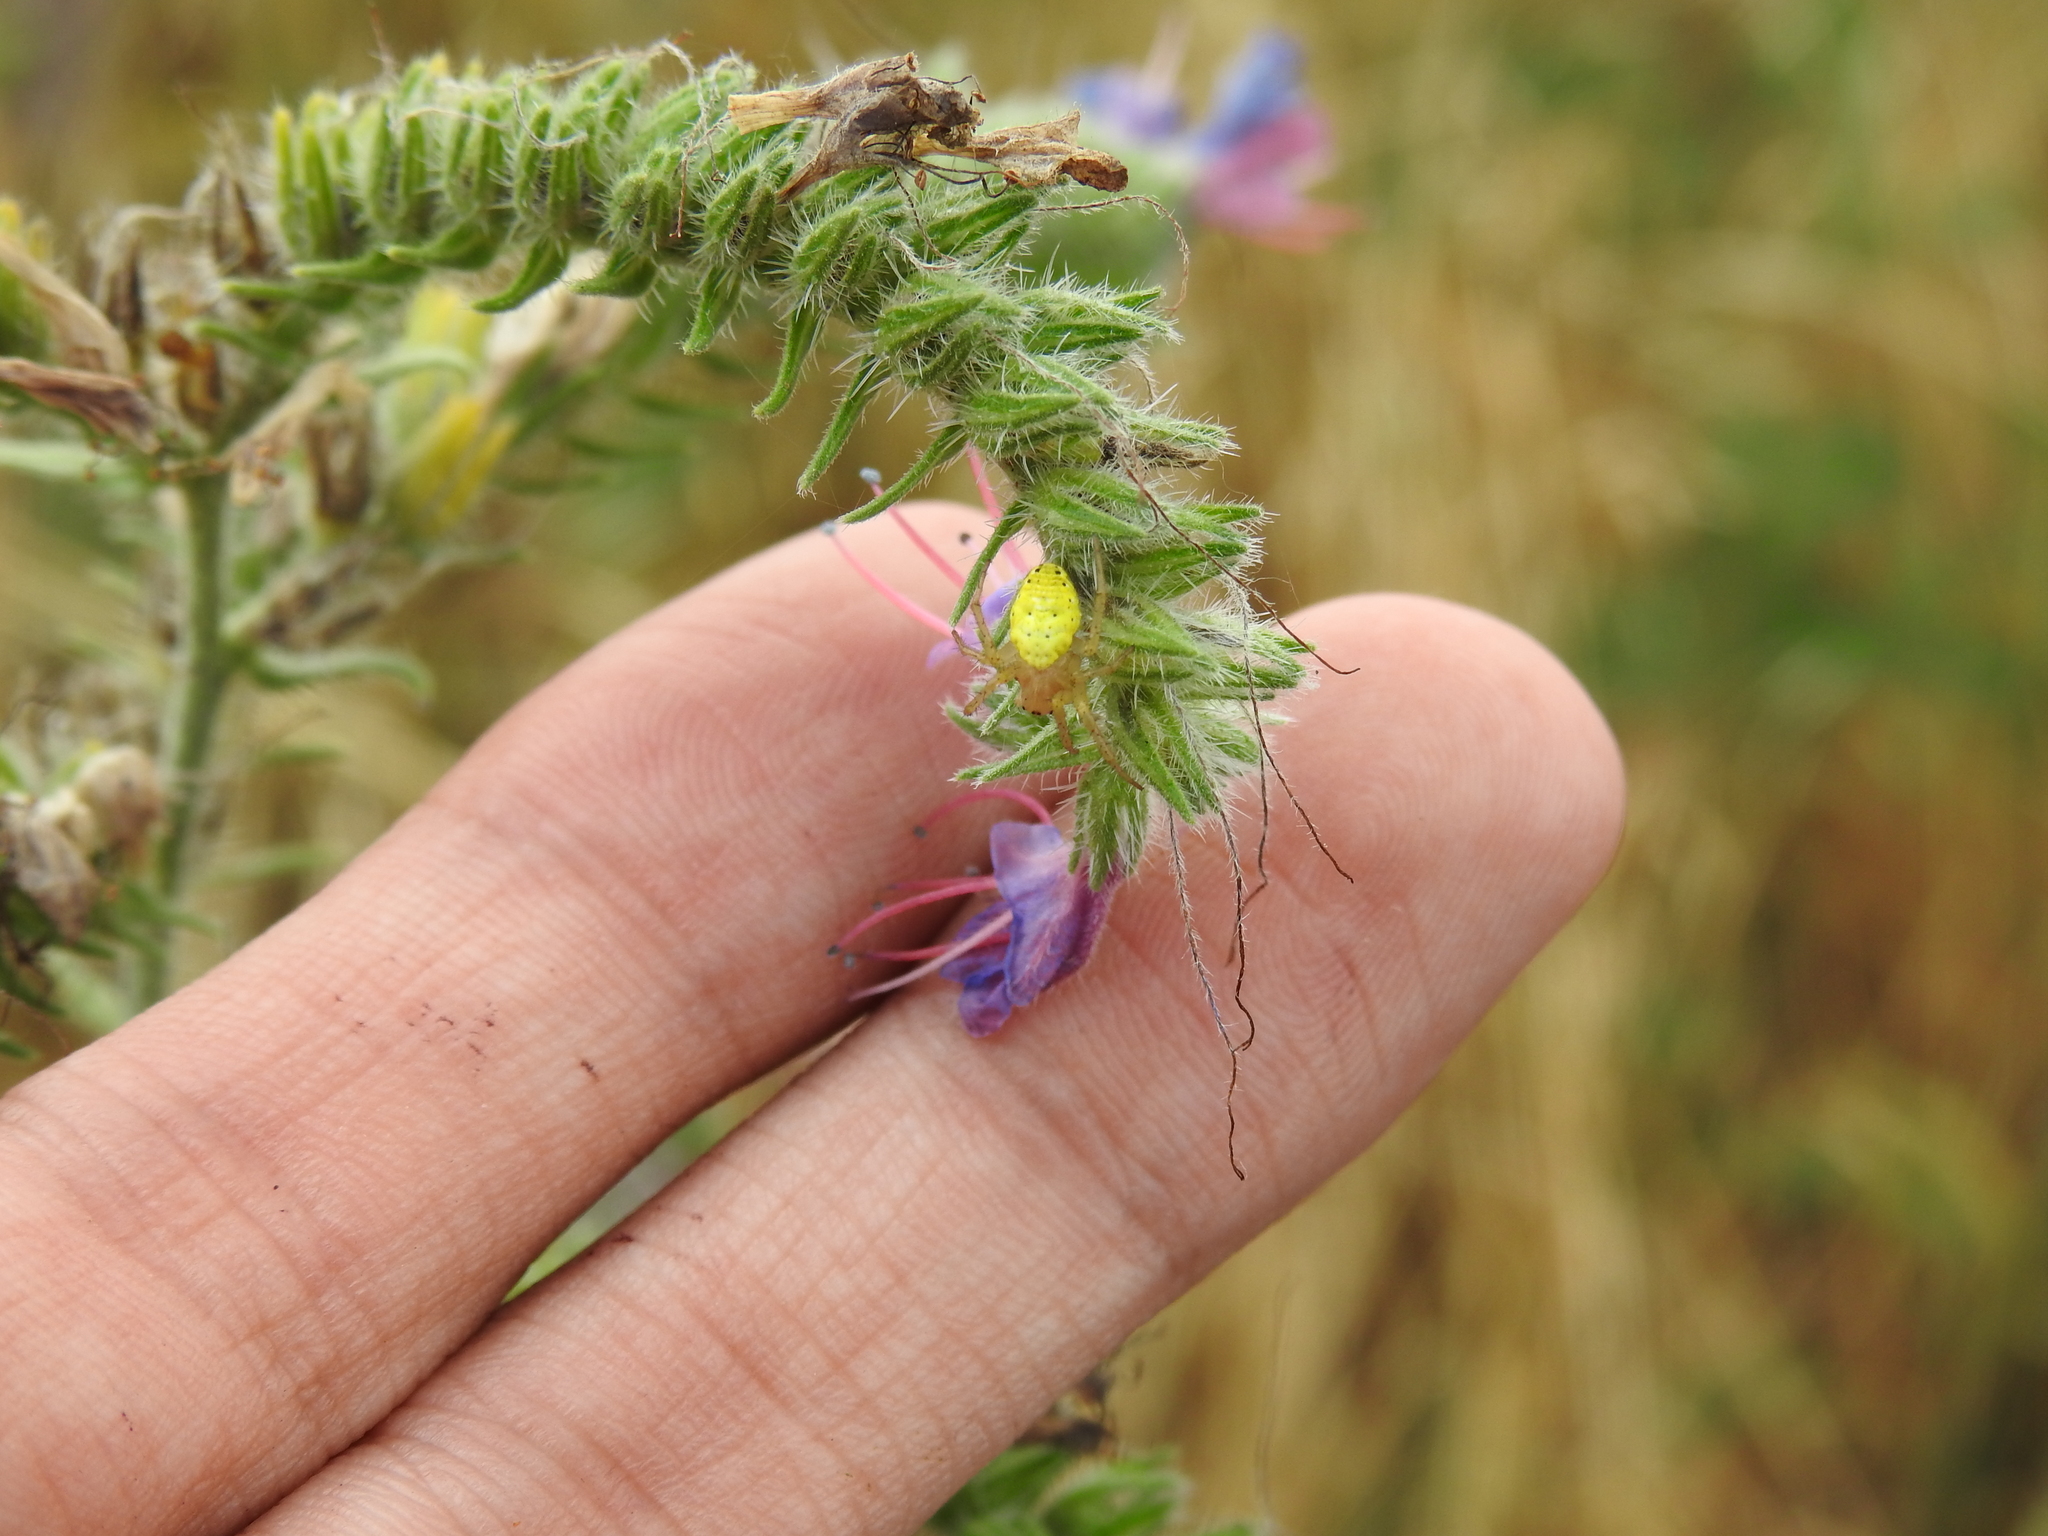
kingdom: Animalia
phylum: Arthropoda
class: Arachnida
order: Araneae
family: Araneidae
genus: Araniella
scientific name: Araniella
